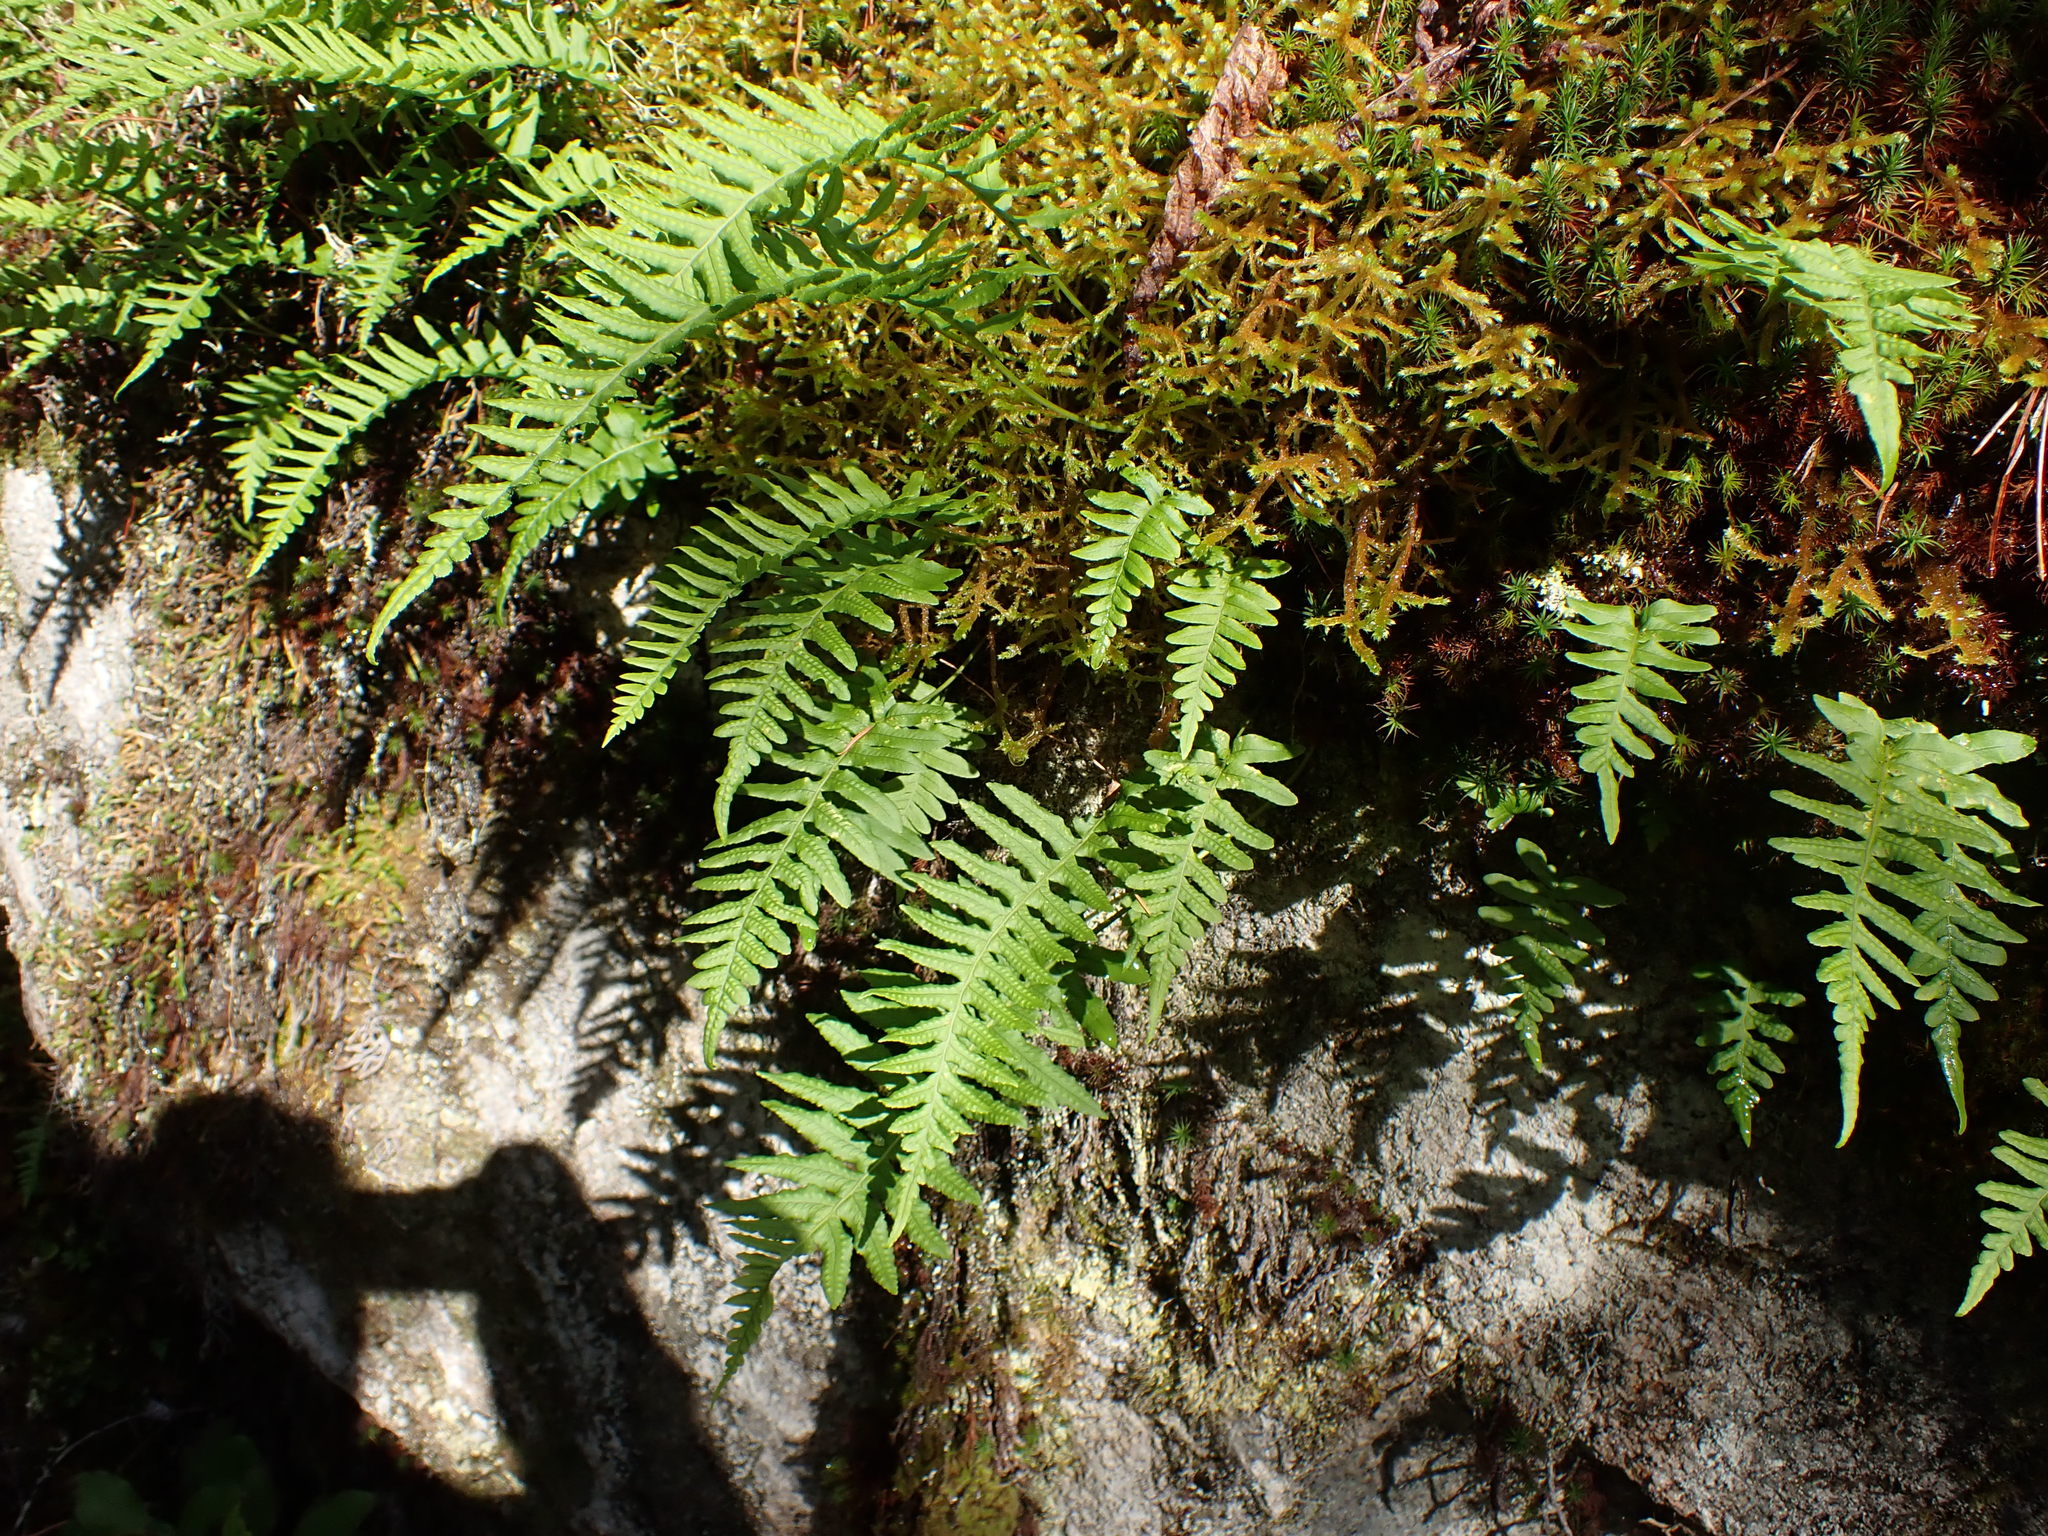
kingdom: Plantae
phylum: Tracheophyta
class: Polypodiopsida
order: Polypodiales
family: Polypodiaceae
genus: Polypodium
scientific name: Polypodium glycyrrhiza
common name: Licorice fern
